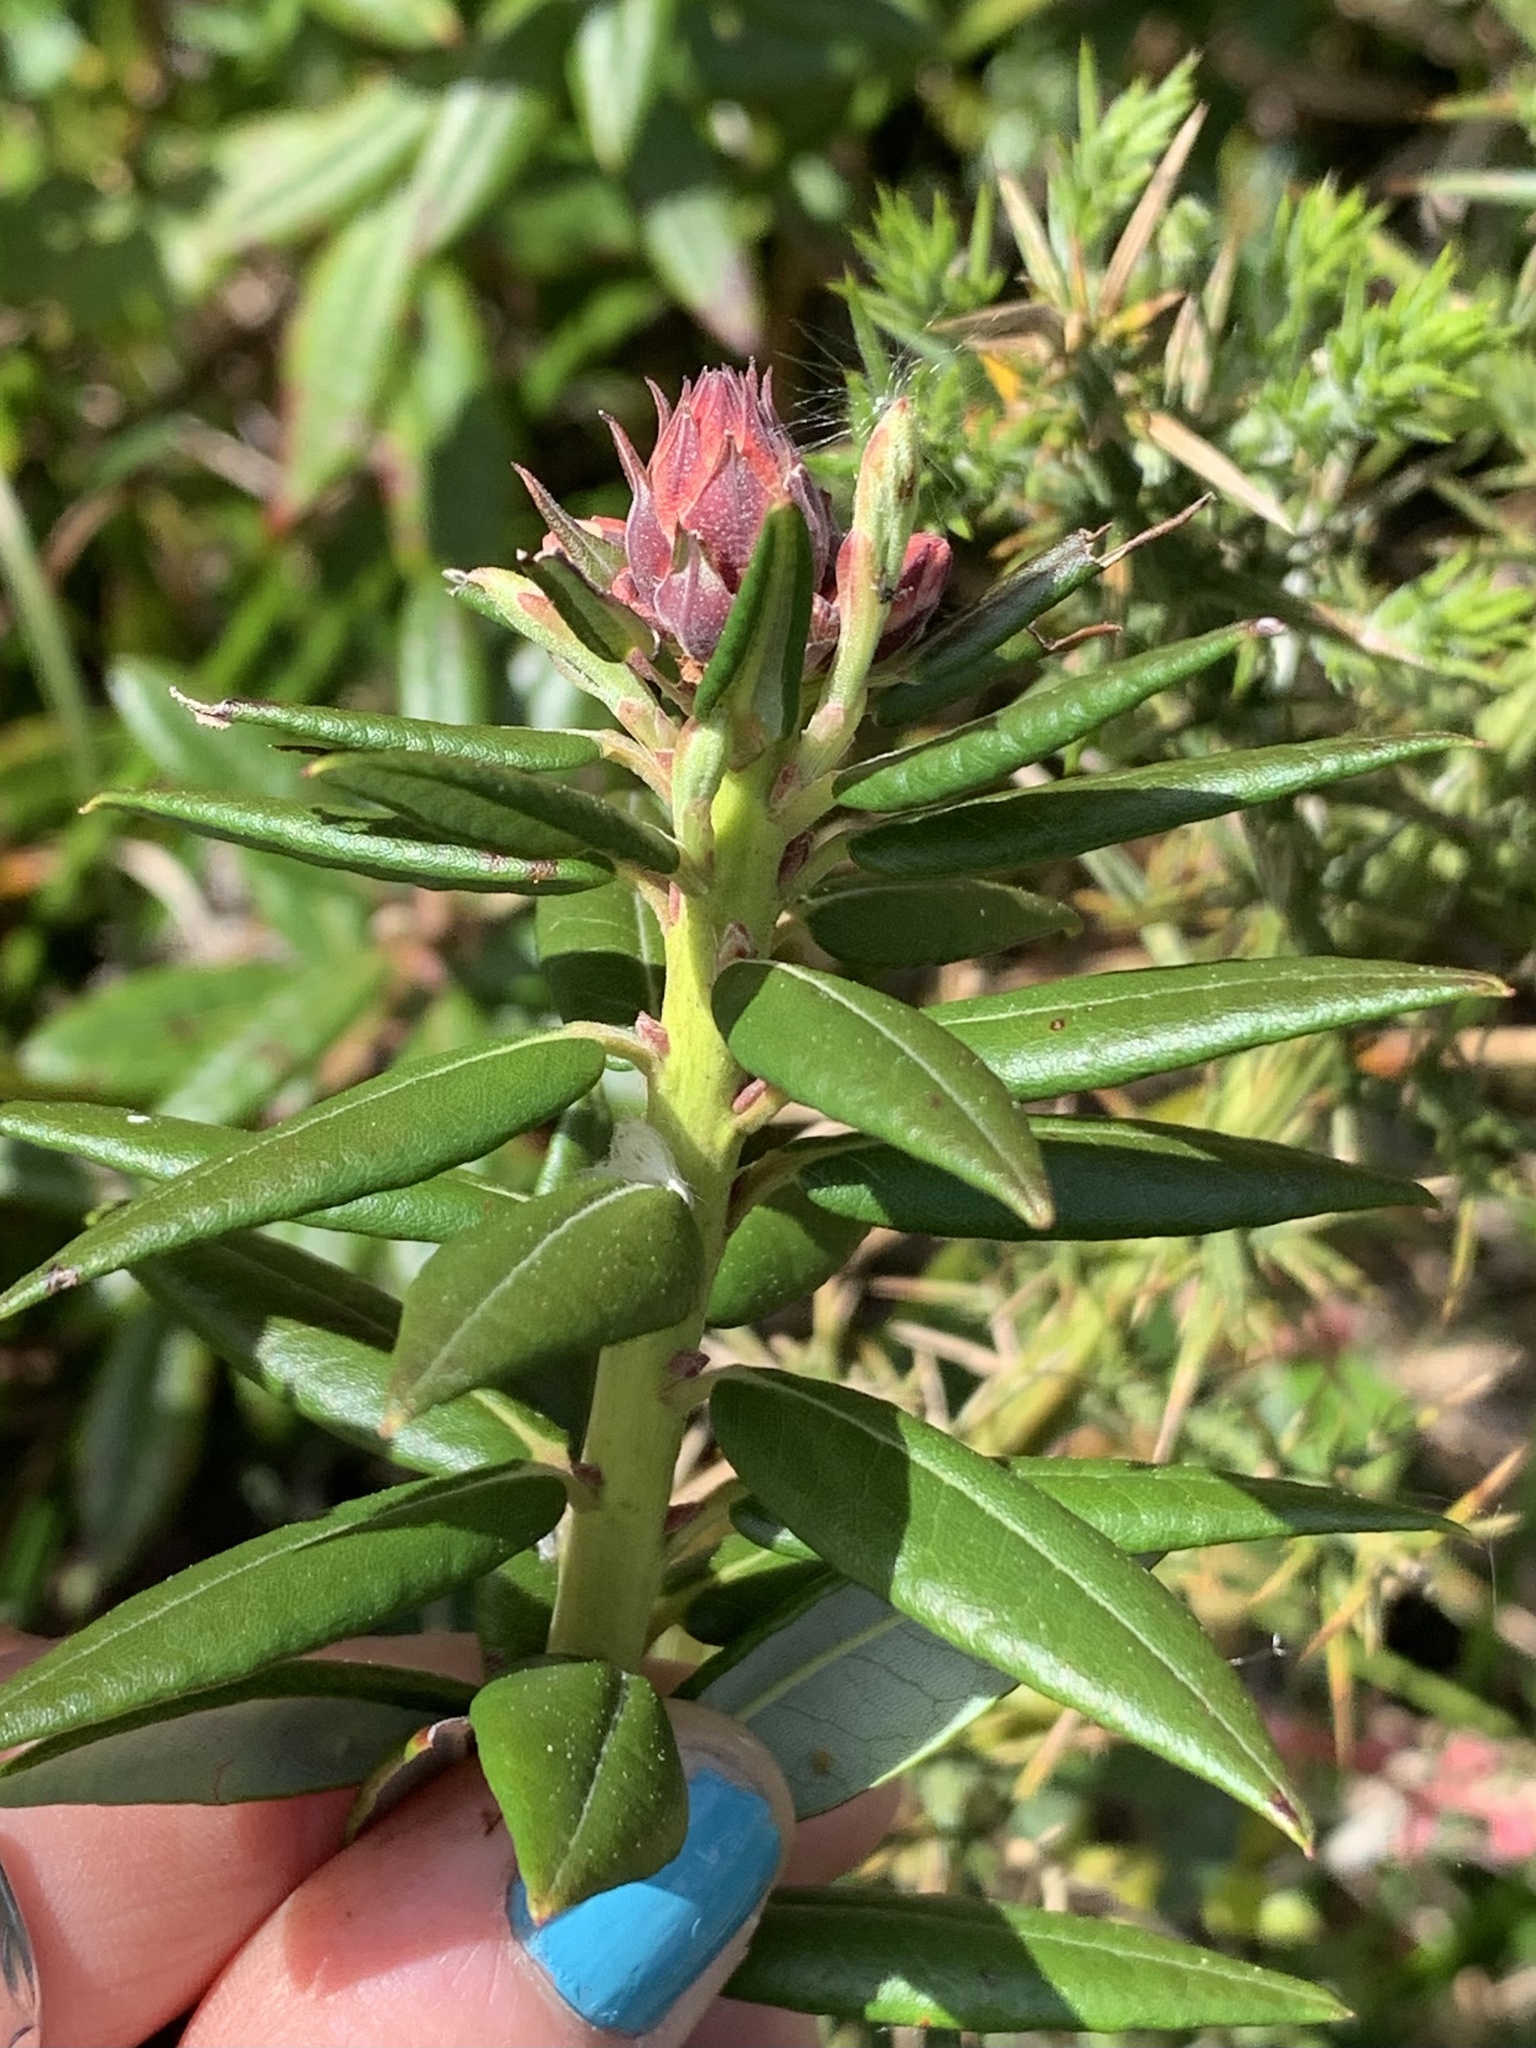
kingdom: Plantae
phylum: Tracheophyta
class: Magnoliopsida
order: Ericales
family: Ericaceae
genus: Rhododendron
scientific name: Rhododendron columbianum
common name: Western labrador tea
